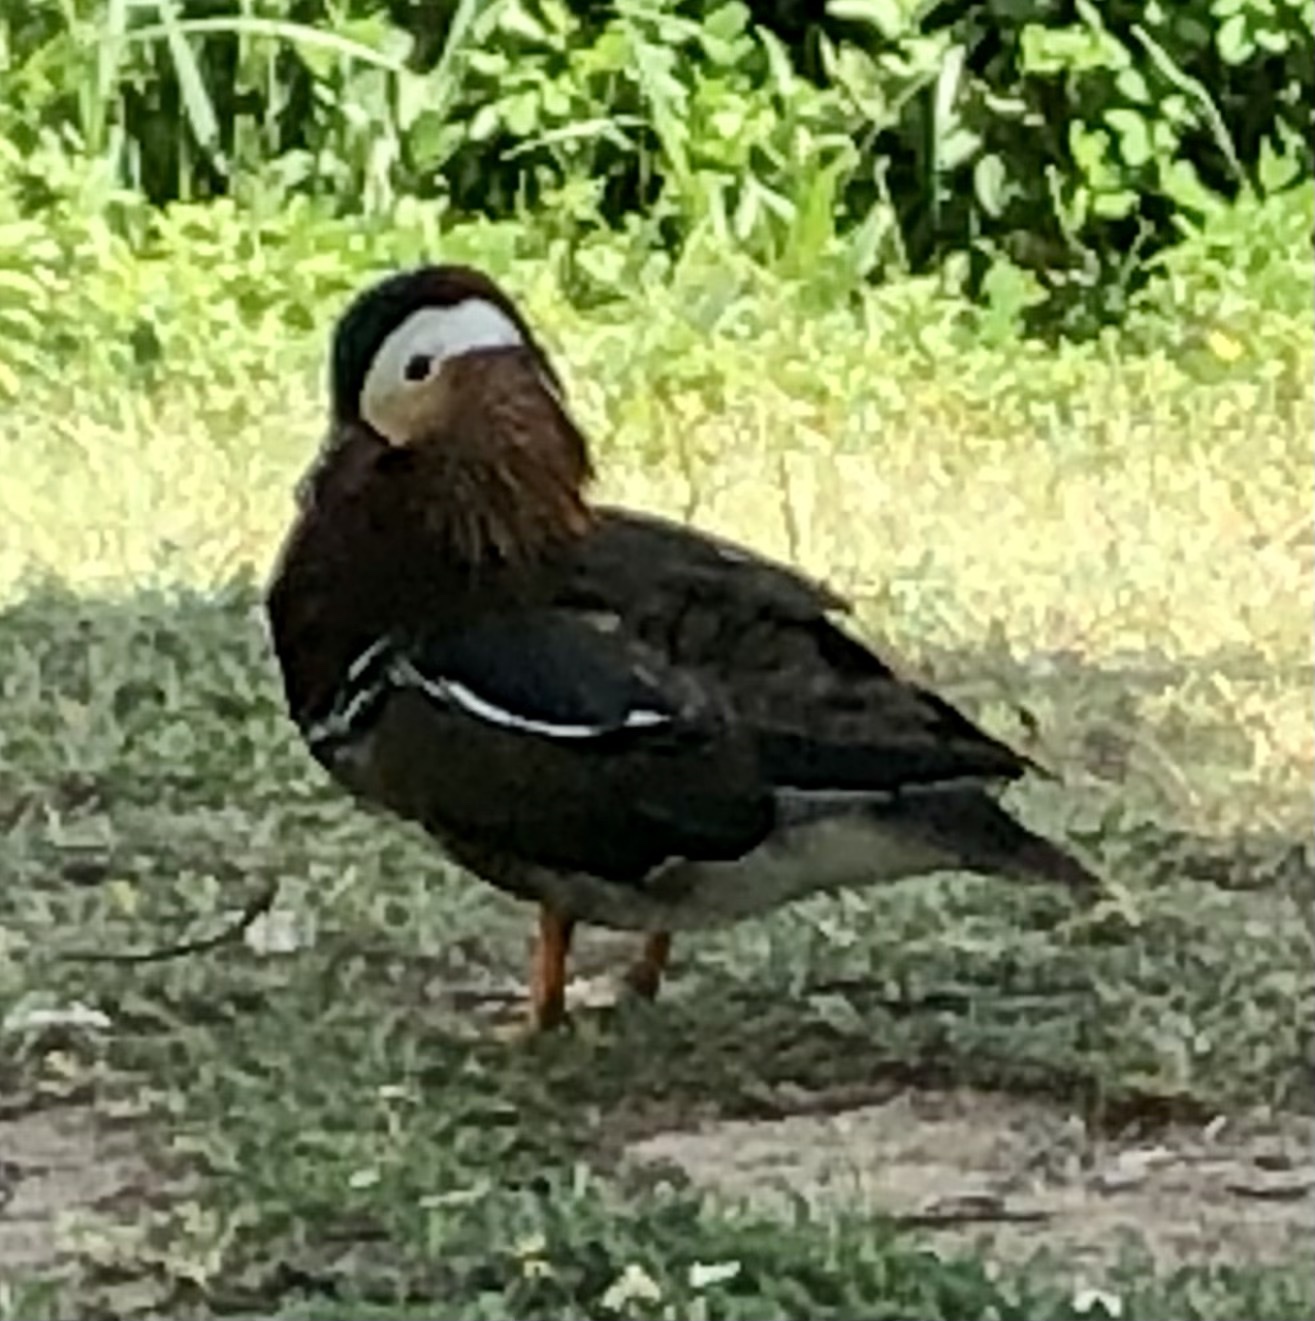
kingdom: Animalia
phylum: Chordata
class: Aves
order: Anseriformes
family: Anatidae
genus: Aix
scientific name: Aix galericulata
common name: Mandarin duck
